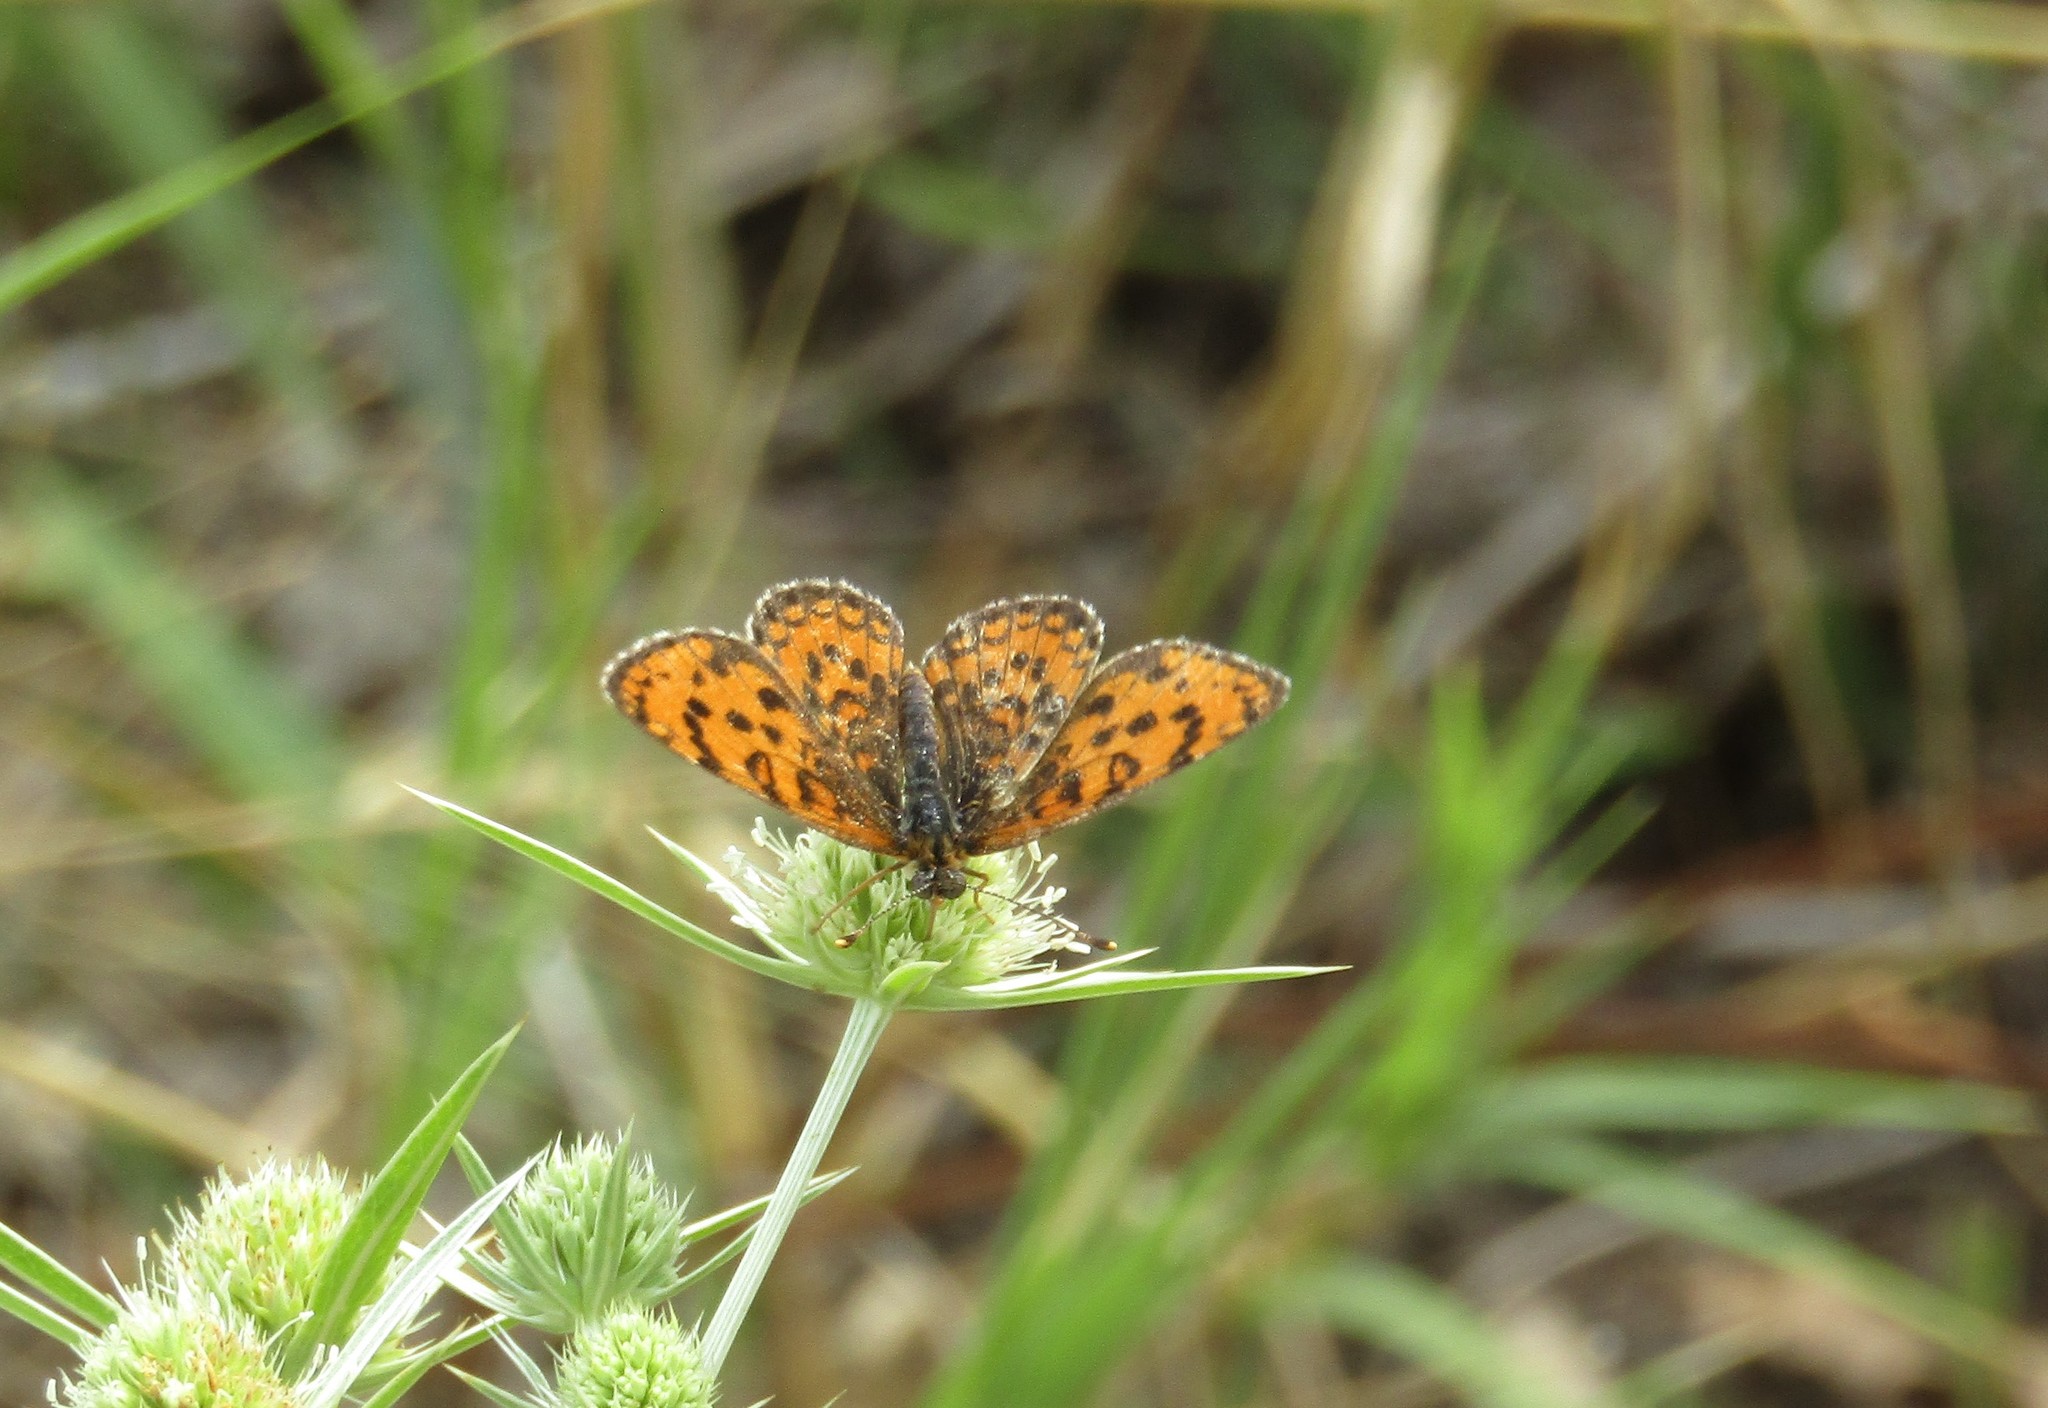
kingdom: Animalia
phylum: Arthropoda
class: Insecta
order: Lepidoptera
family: Nymphalidae
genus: Melitaea
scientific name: Melitaea trivia
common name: Lesser spotted fritillary
